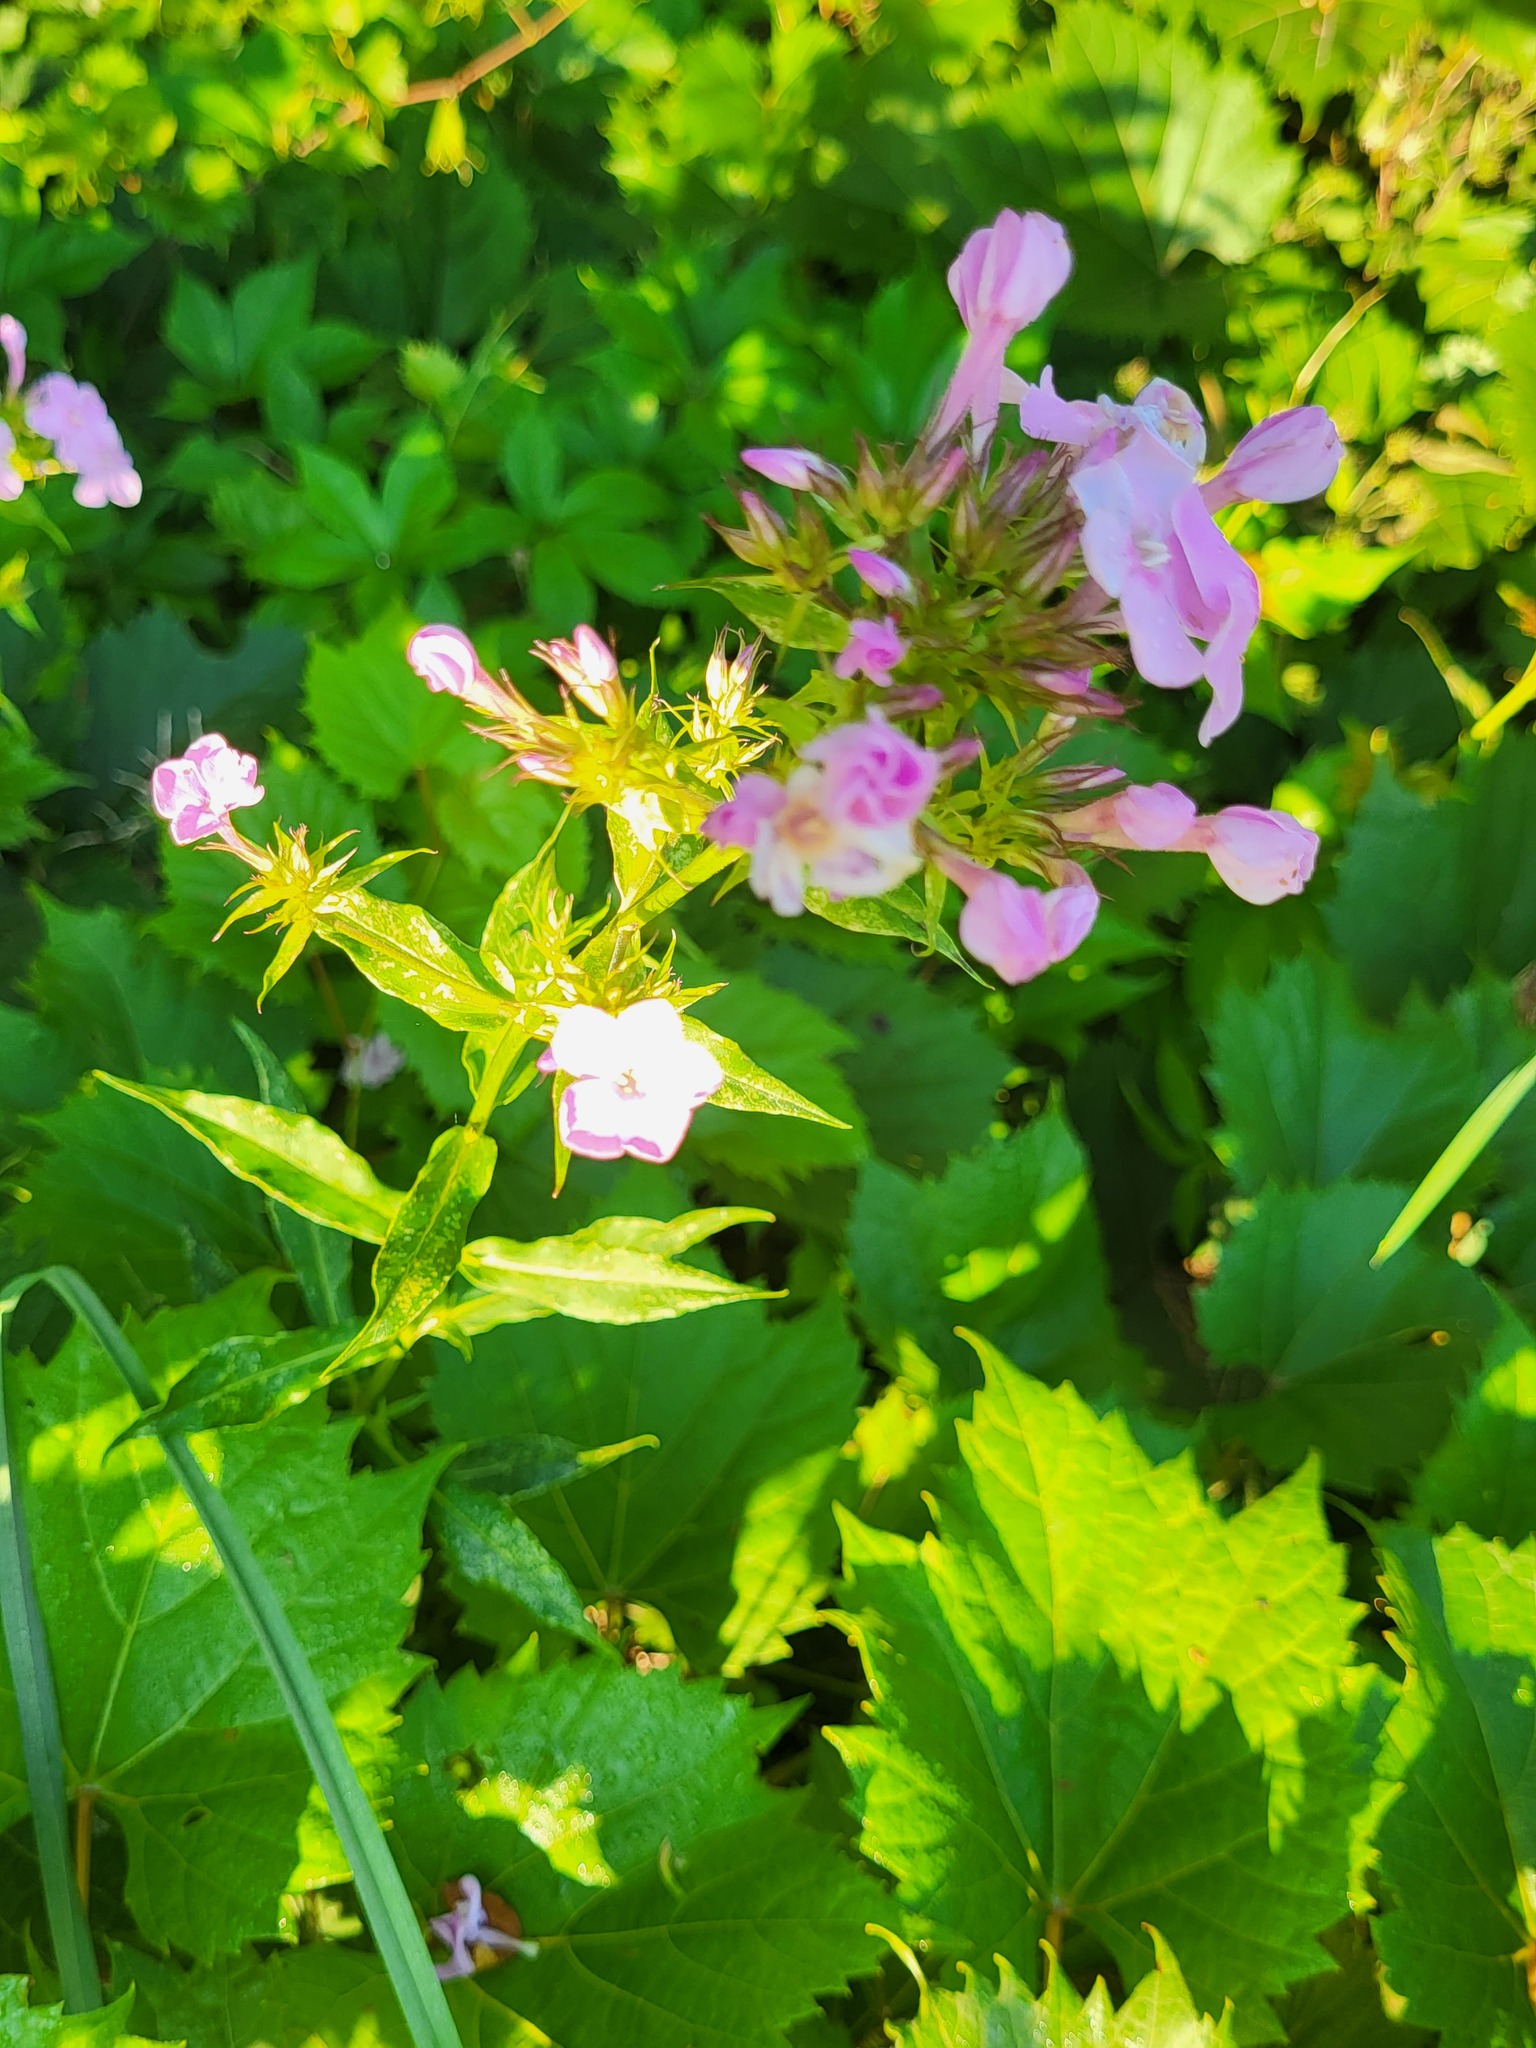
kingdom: Plantae
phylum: Tracheophyta
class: Magnoliopsida
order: Ericales
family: Polemoniaceae
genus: Phlox
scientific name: Phlox paniculata
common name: Fall phlox
